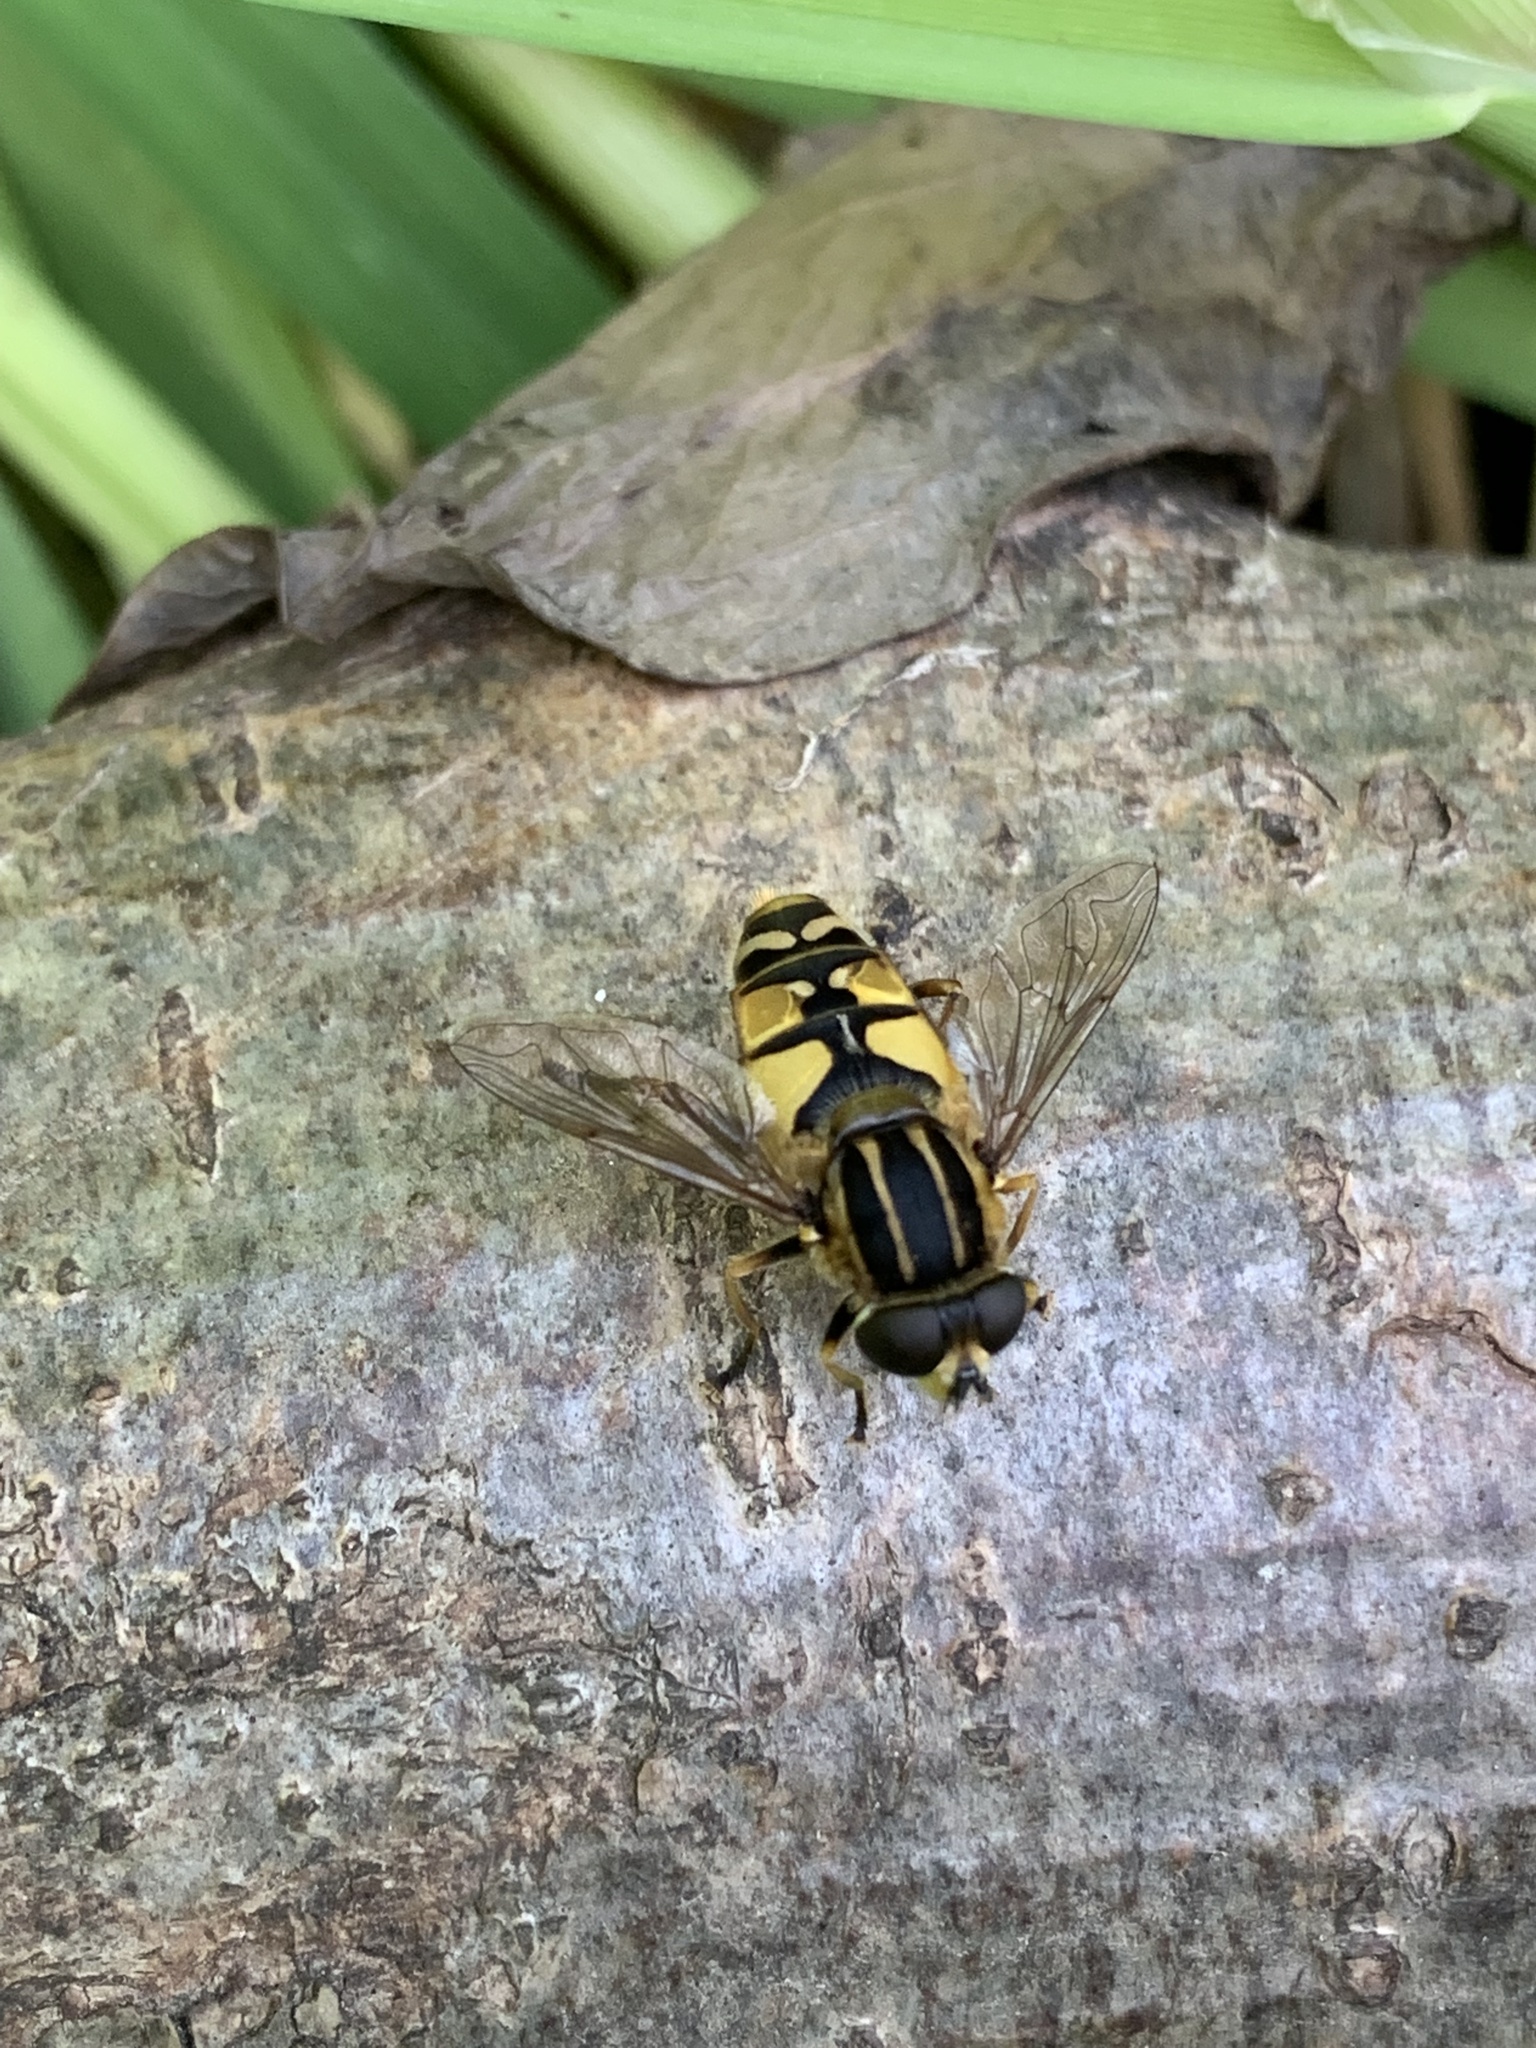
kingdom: Animalia
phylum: Arthropoda
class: Insecta
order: Diptera
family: Syrphidae
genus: Helophilus
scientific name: Helophilus pendulus
